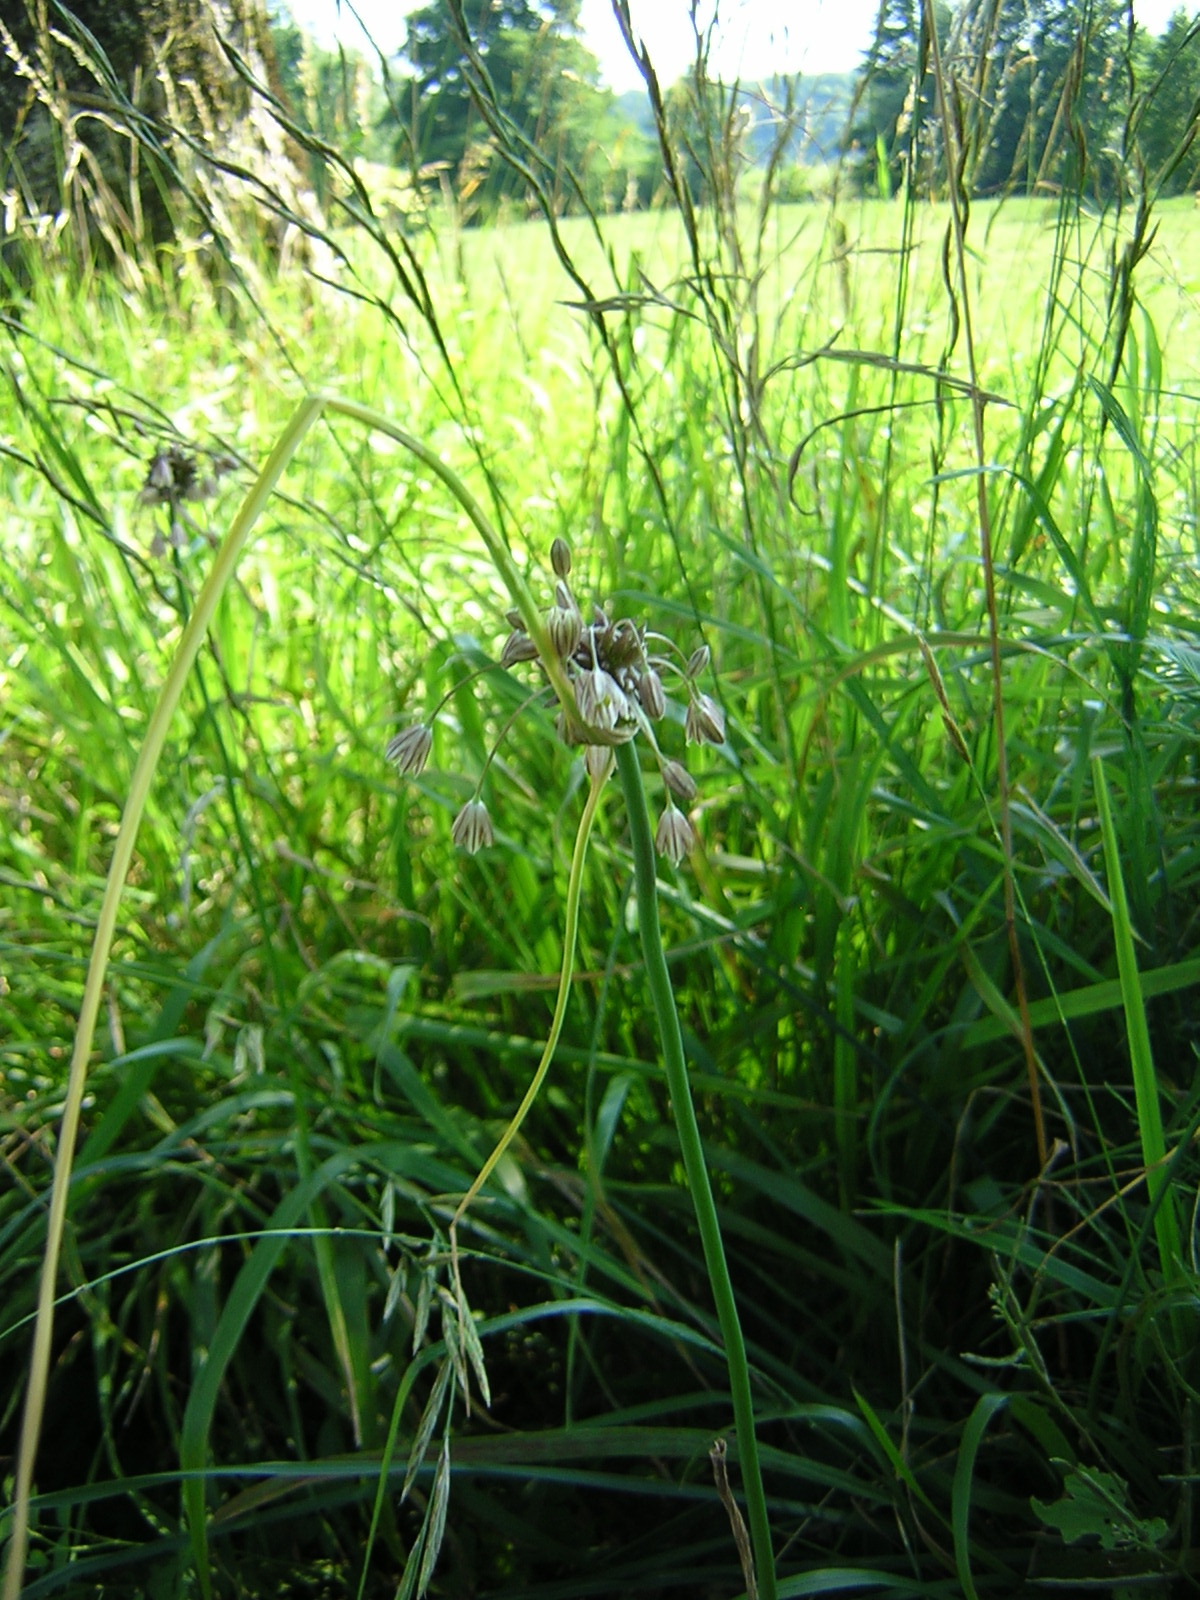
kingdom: Plantae
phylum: Tracheophyta
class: Liliopsida
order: Asparagales
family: Amaryllidaceae
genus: Allium
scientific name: Allium oleraceum
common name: Field garlic
